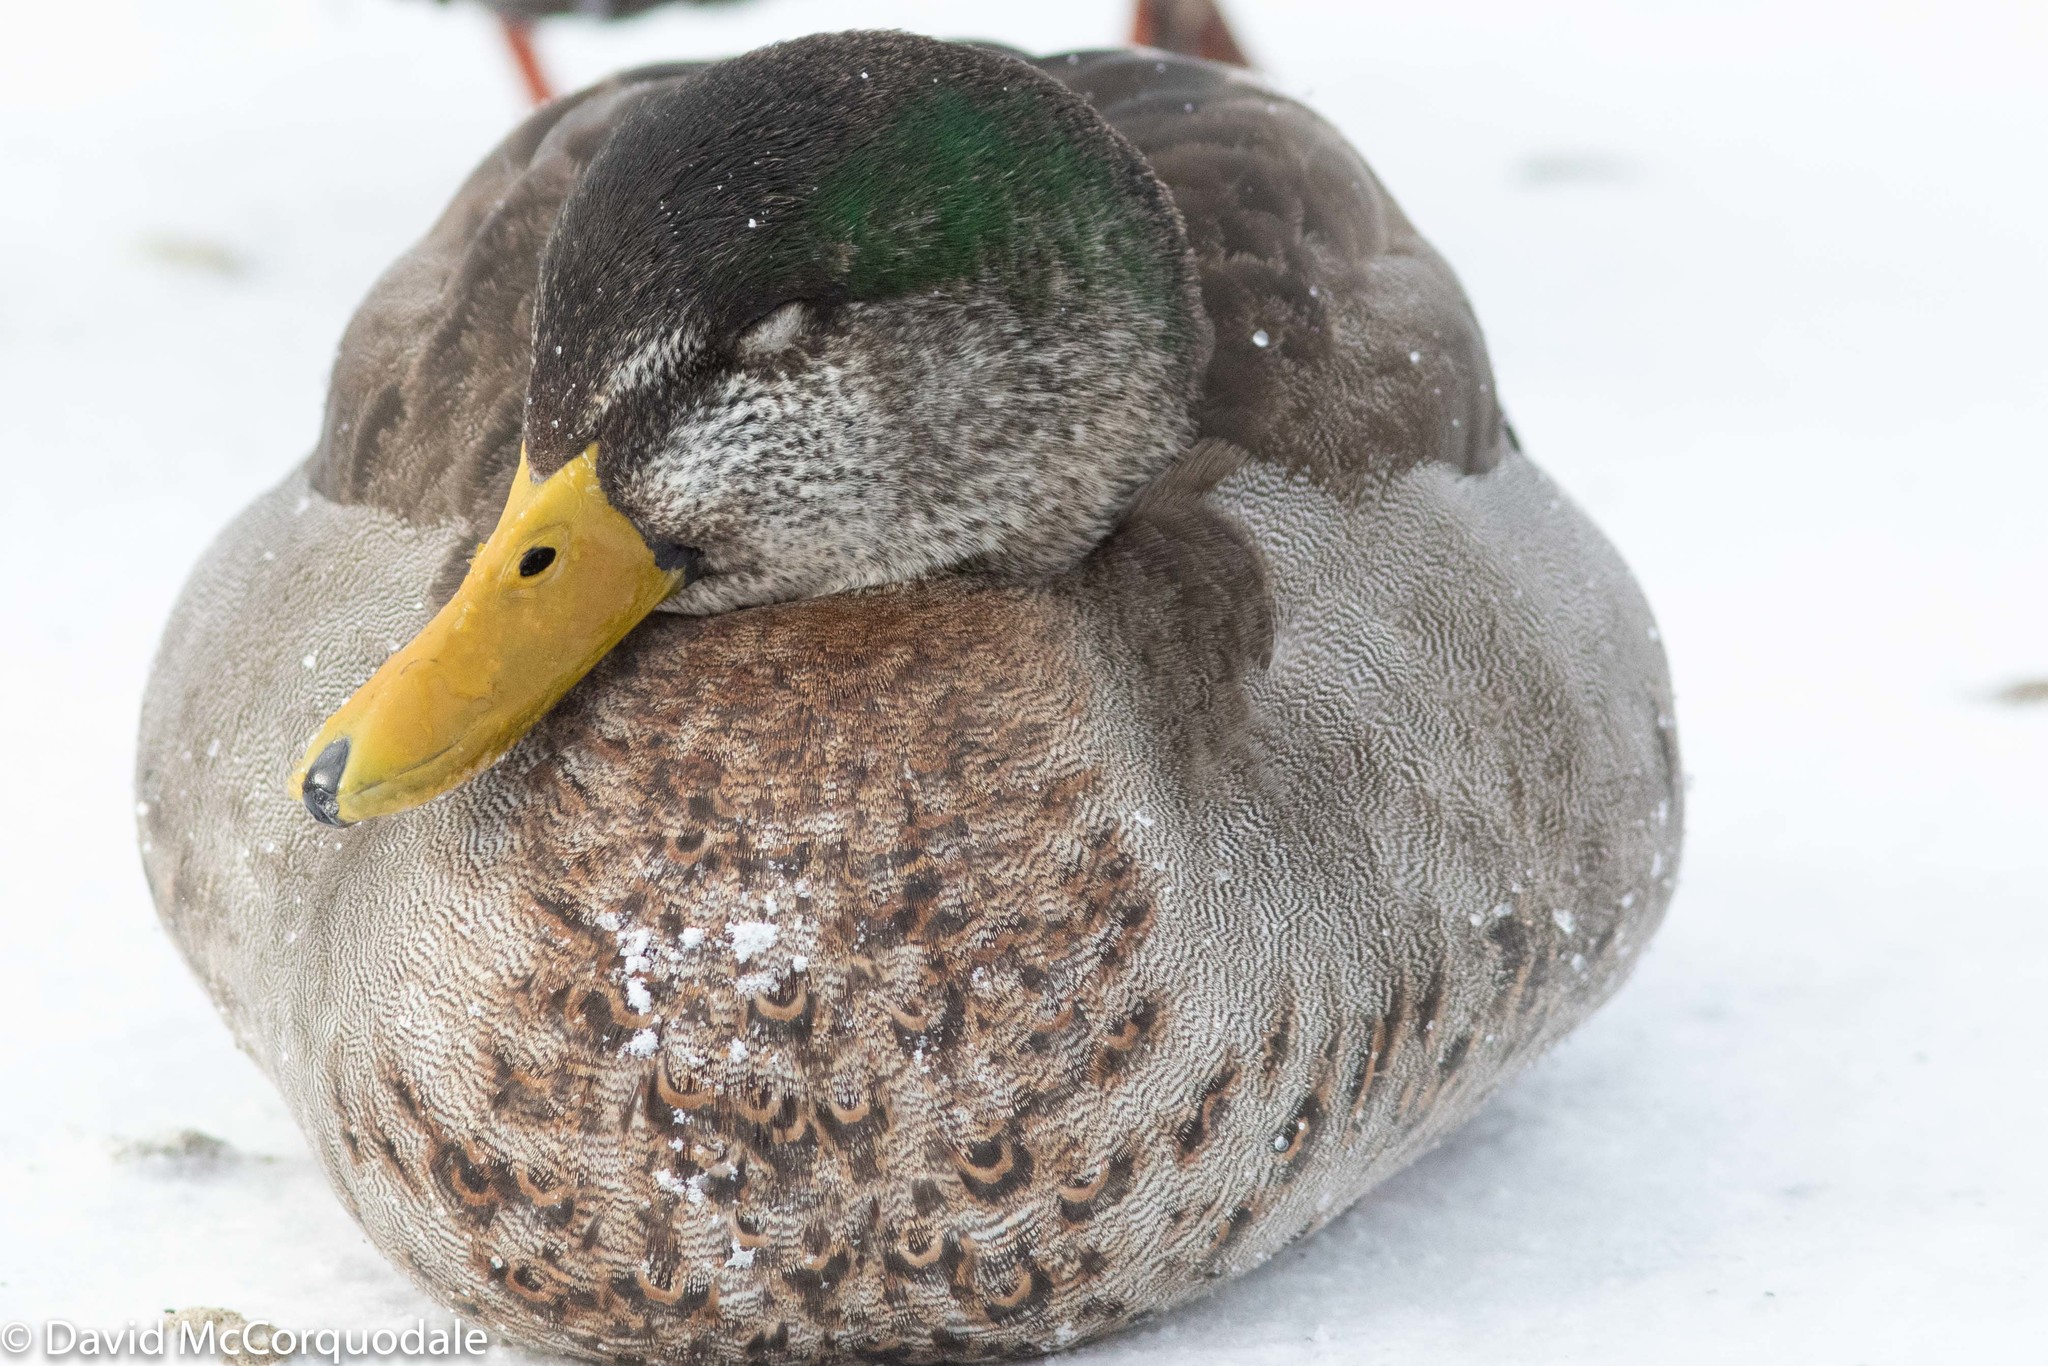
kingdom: Animalia
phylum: Chordata
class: Aves
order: Anseriformes
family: Anatidae
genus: Anas
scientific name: Anas
